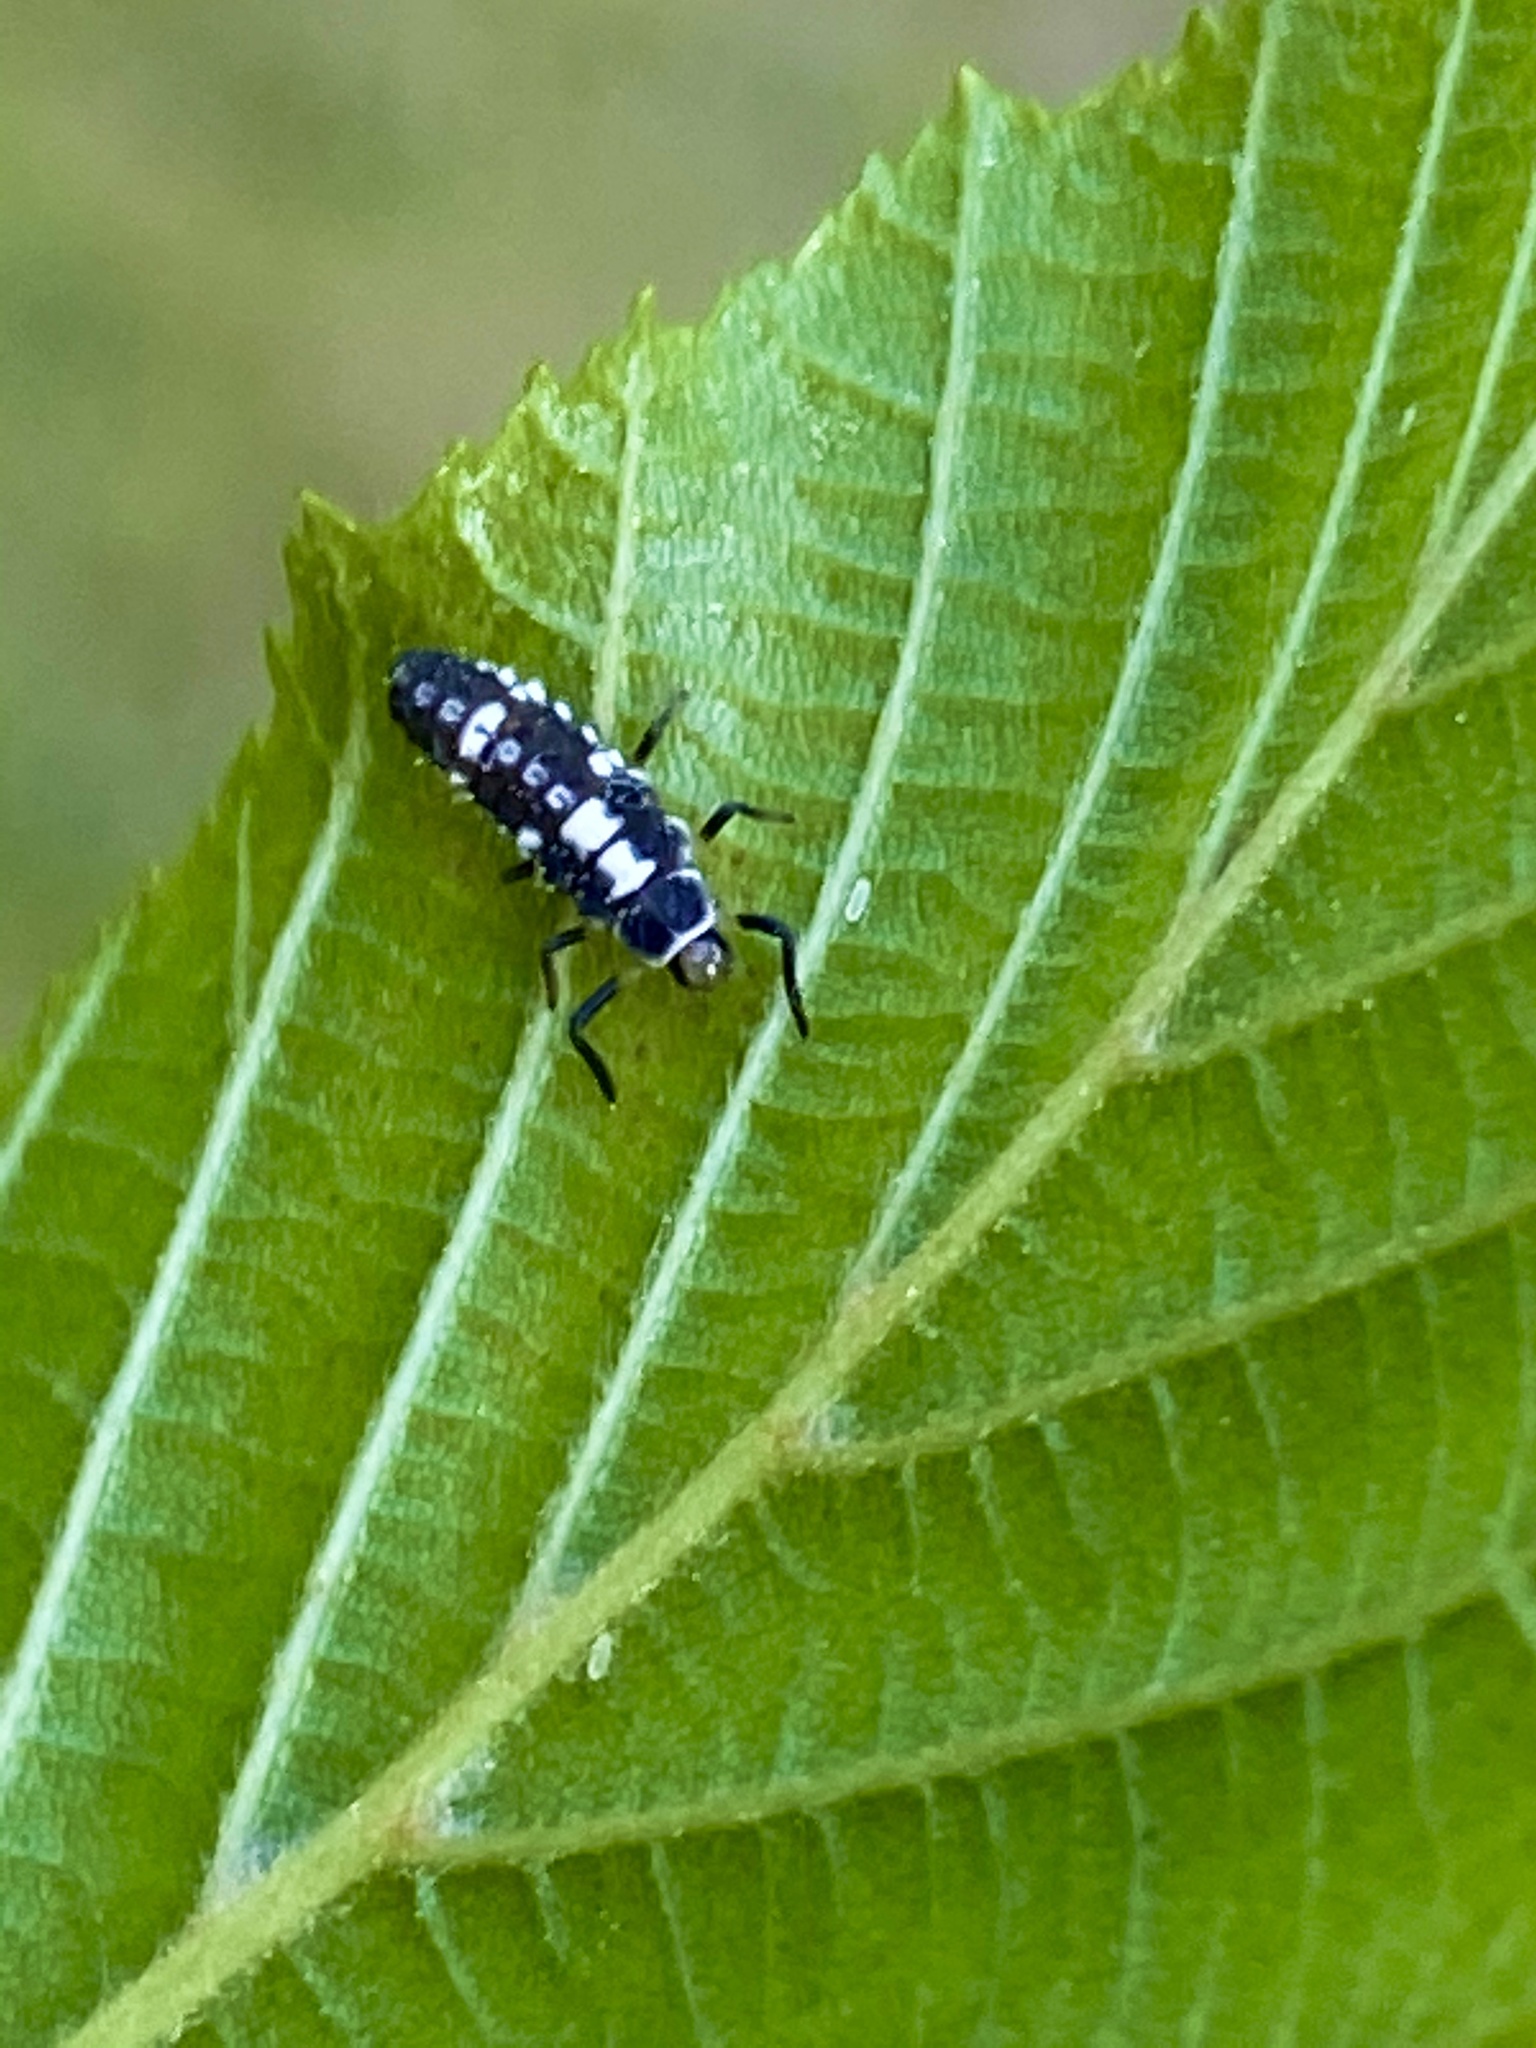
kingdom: Animalia
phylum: Arthropoda
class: Insecta
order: Coleoptera
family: Coccinellidae
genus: Propylaea
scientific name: Propylaea quatuordecimpunctata
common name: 14-spotted ladybird beetle
